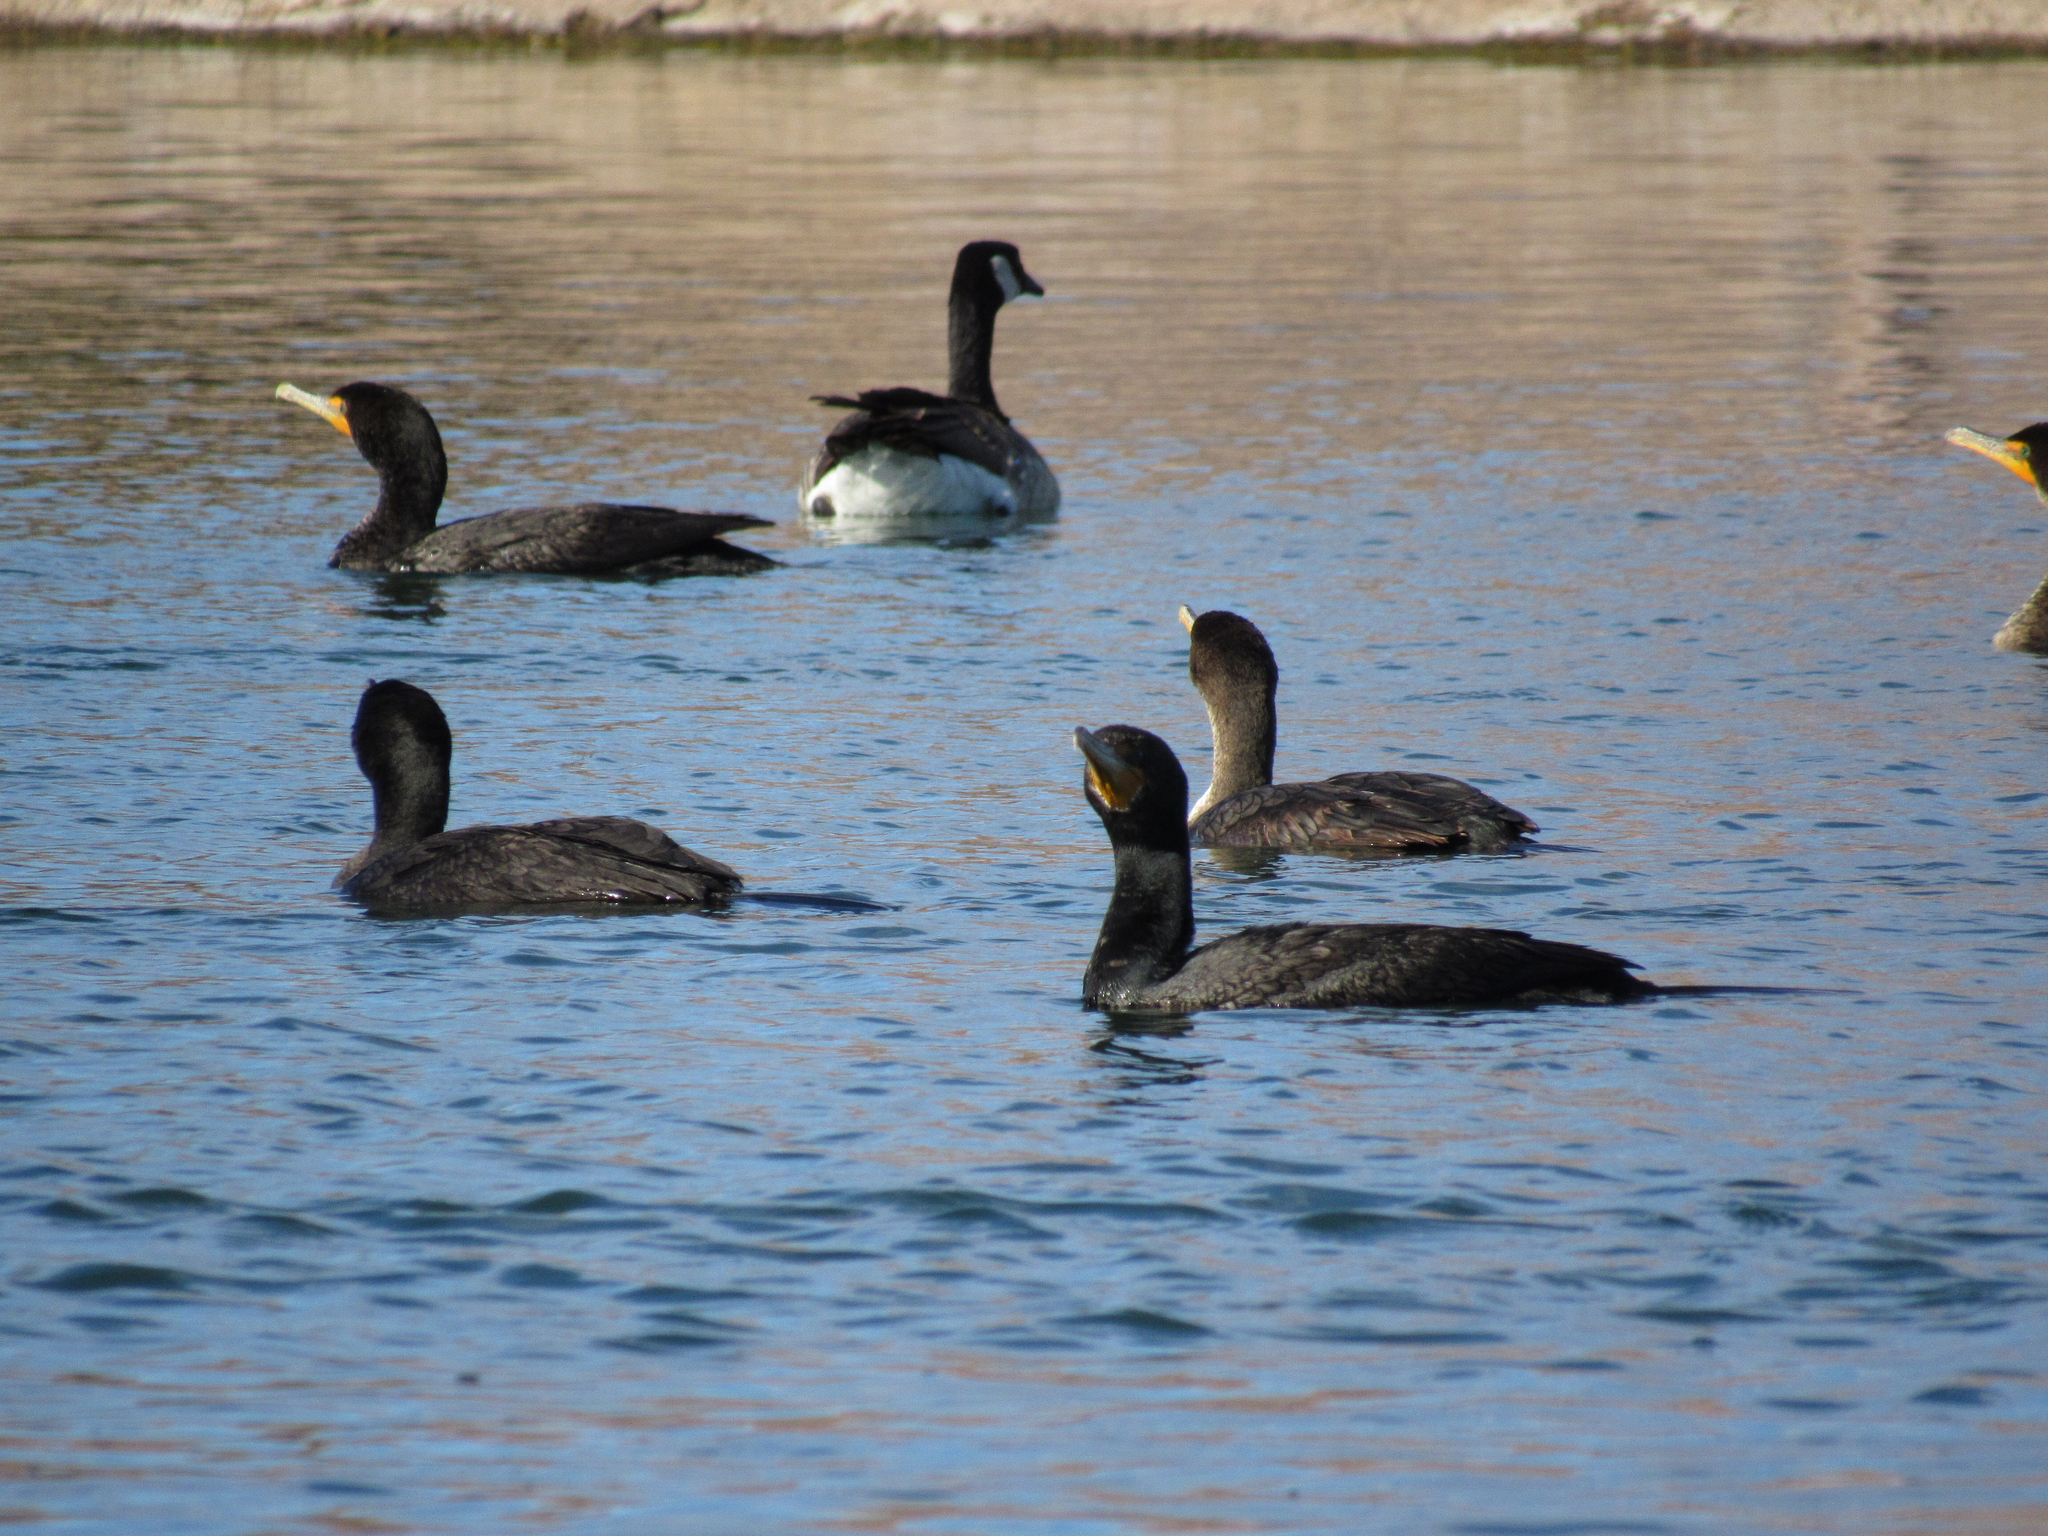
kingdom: Animalia
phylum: Chordata
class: Aves
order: Suliformes
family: Phalacrocoracidae
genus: Phalacrocorax
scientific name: Phalacrocorax auritus
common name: Double-crested cormorant
